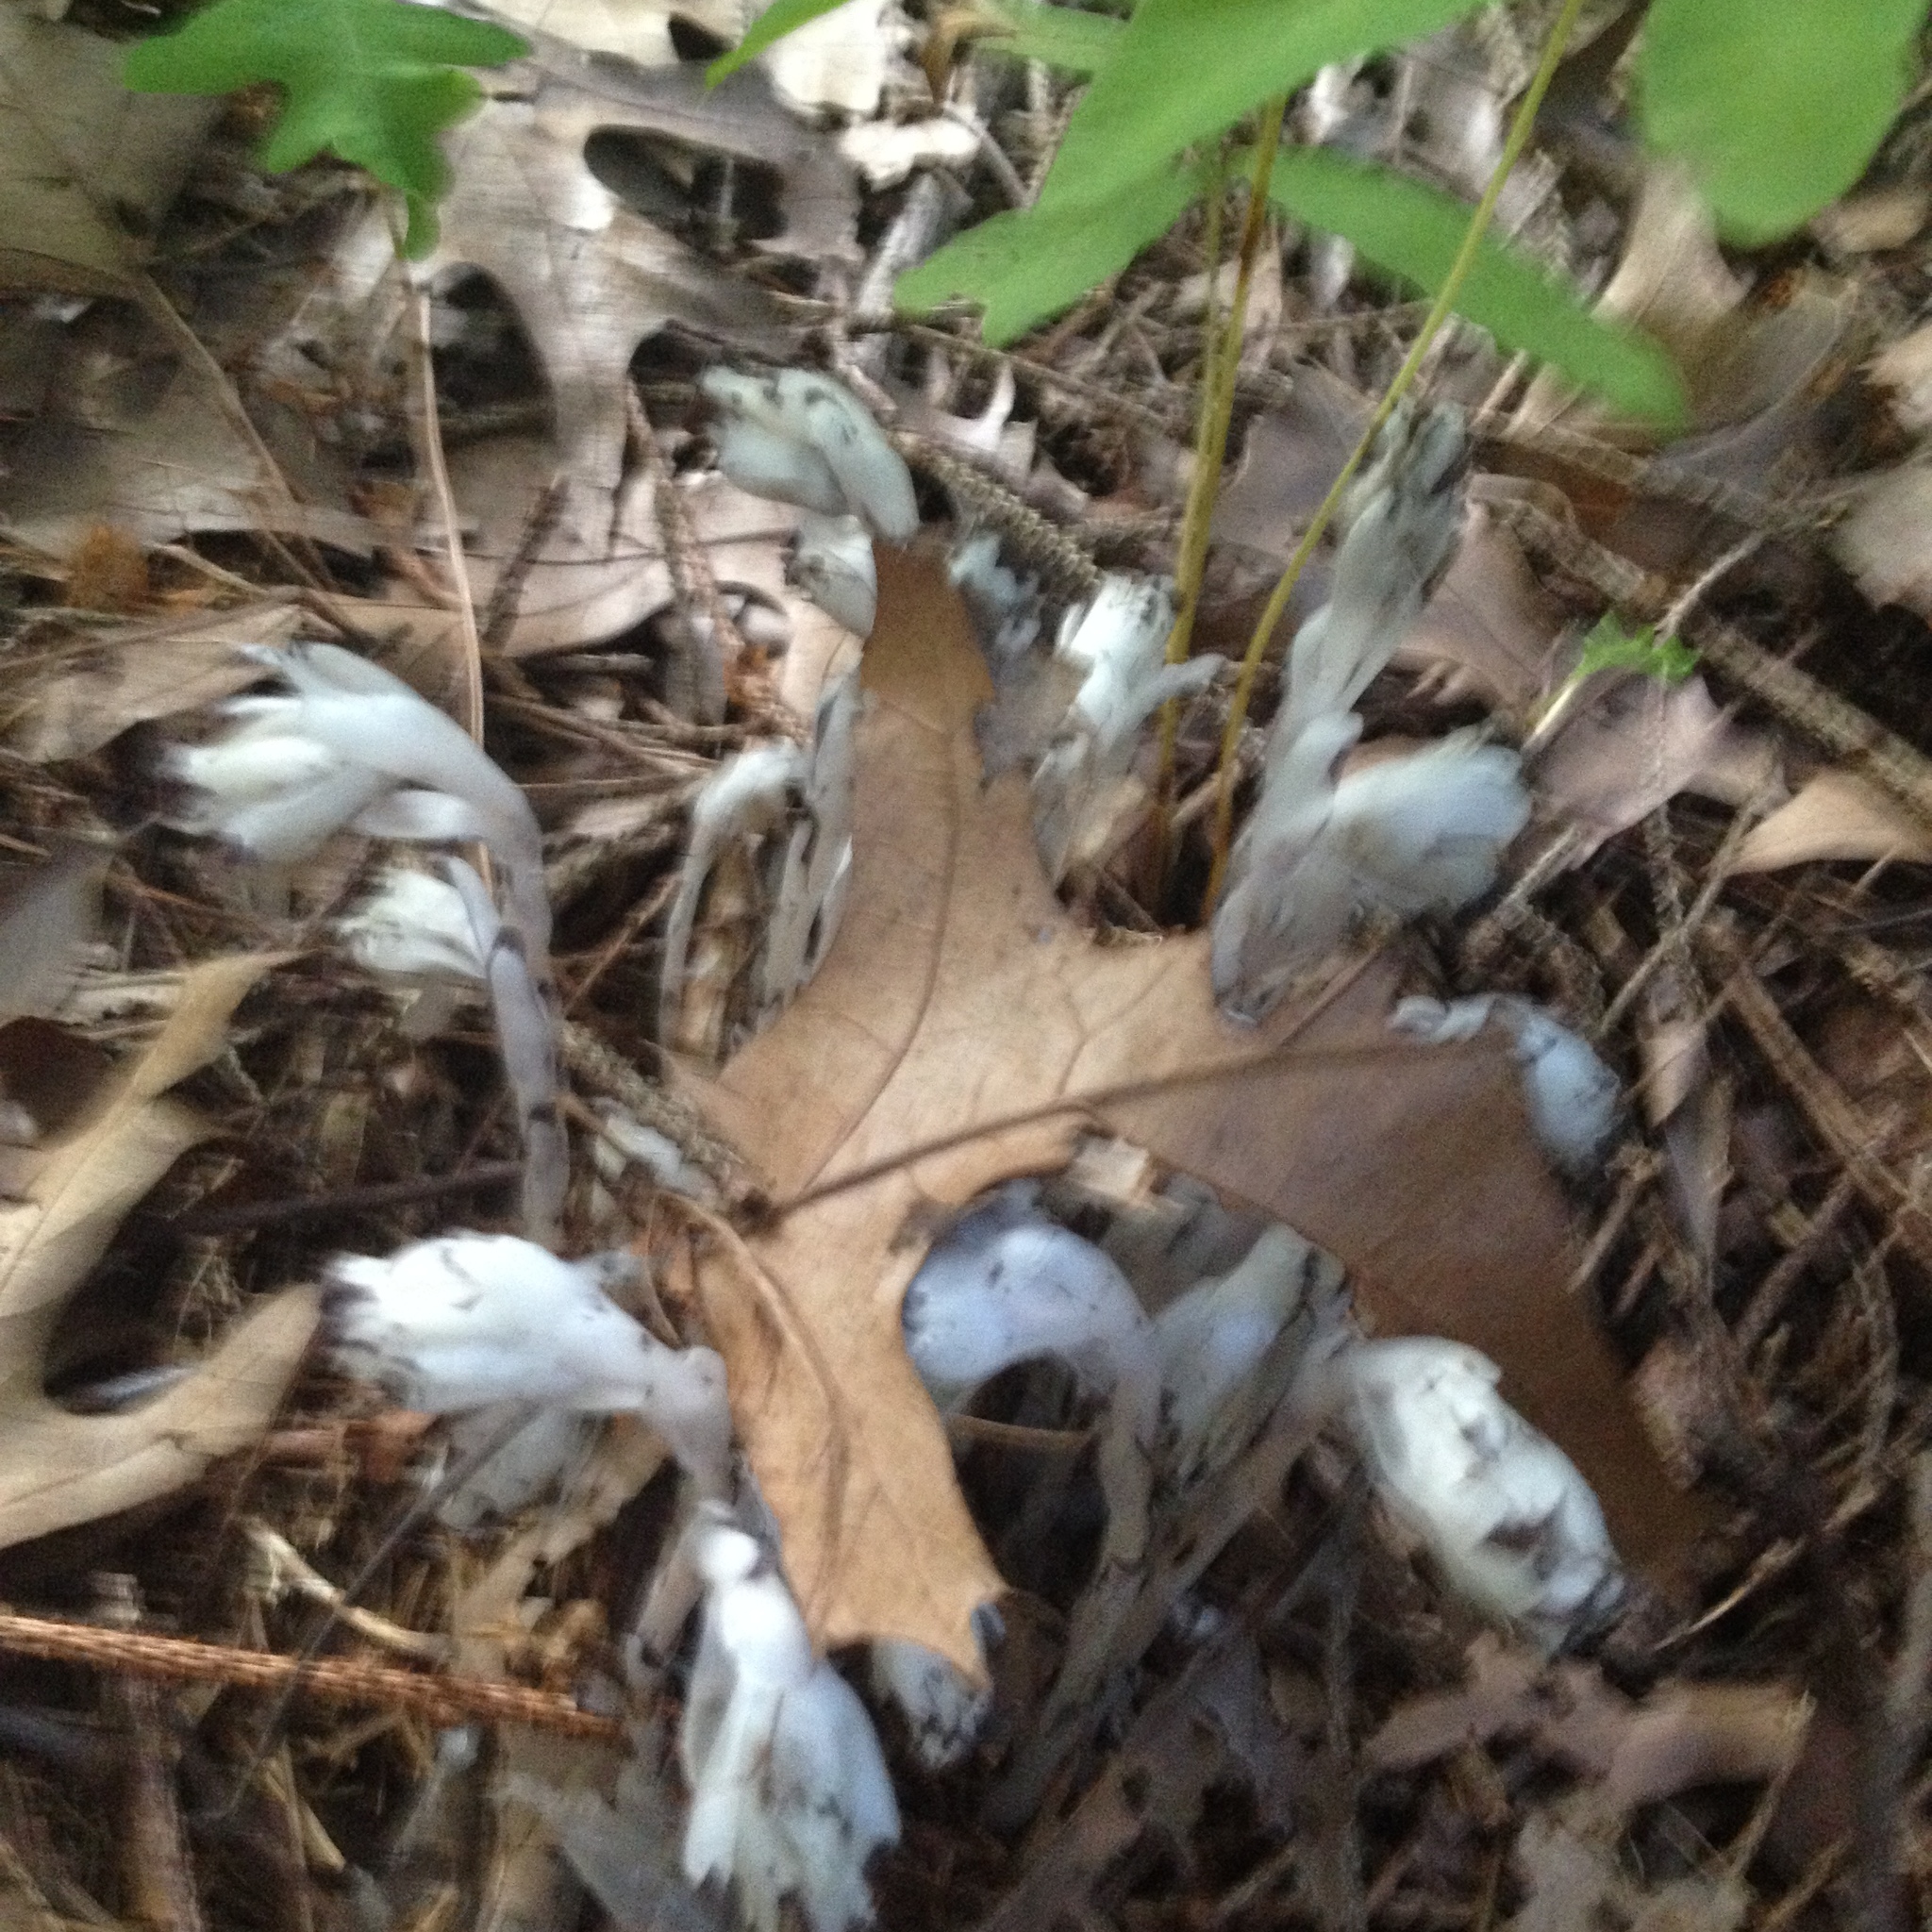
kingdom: Plantae
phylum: Tracheophyta
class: Magnoliopsida
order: Ericales
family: Ericaceae
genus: Monotropa
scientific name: Monotropa uniflora
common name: Convulsion root
